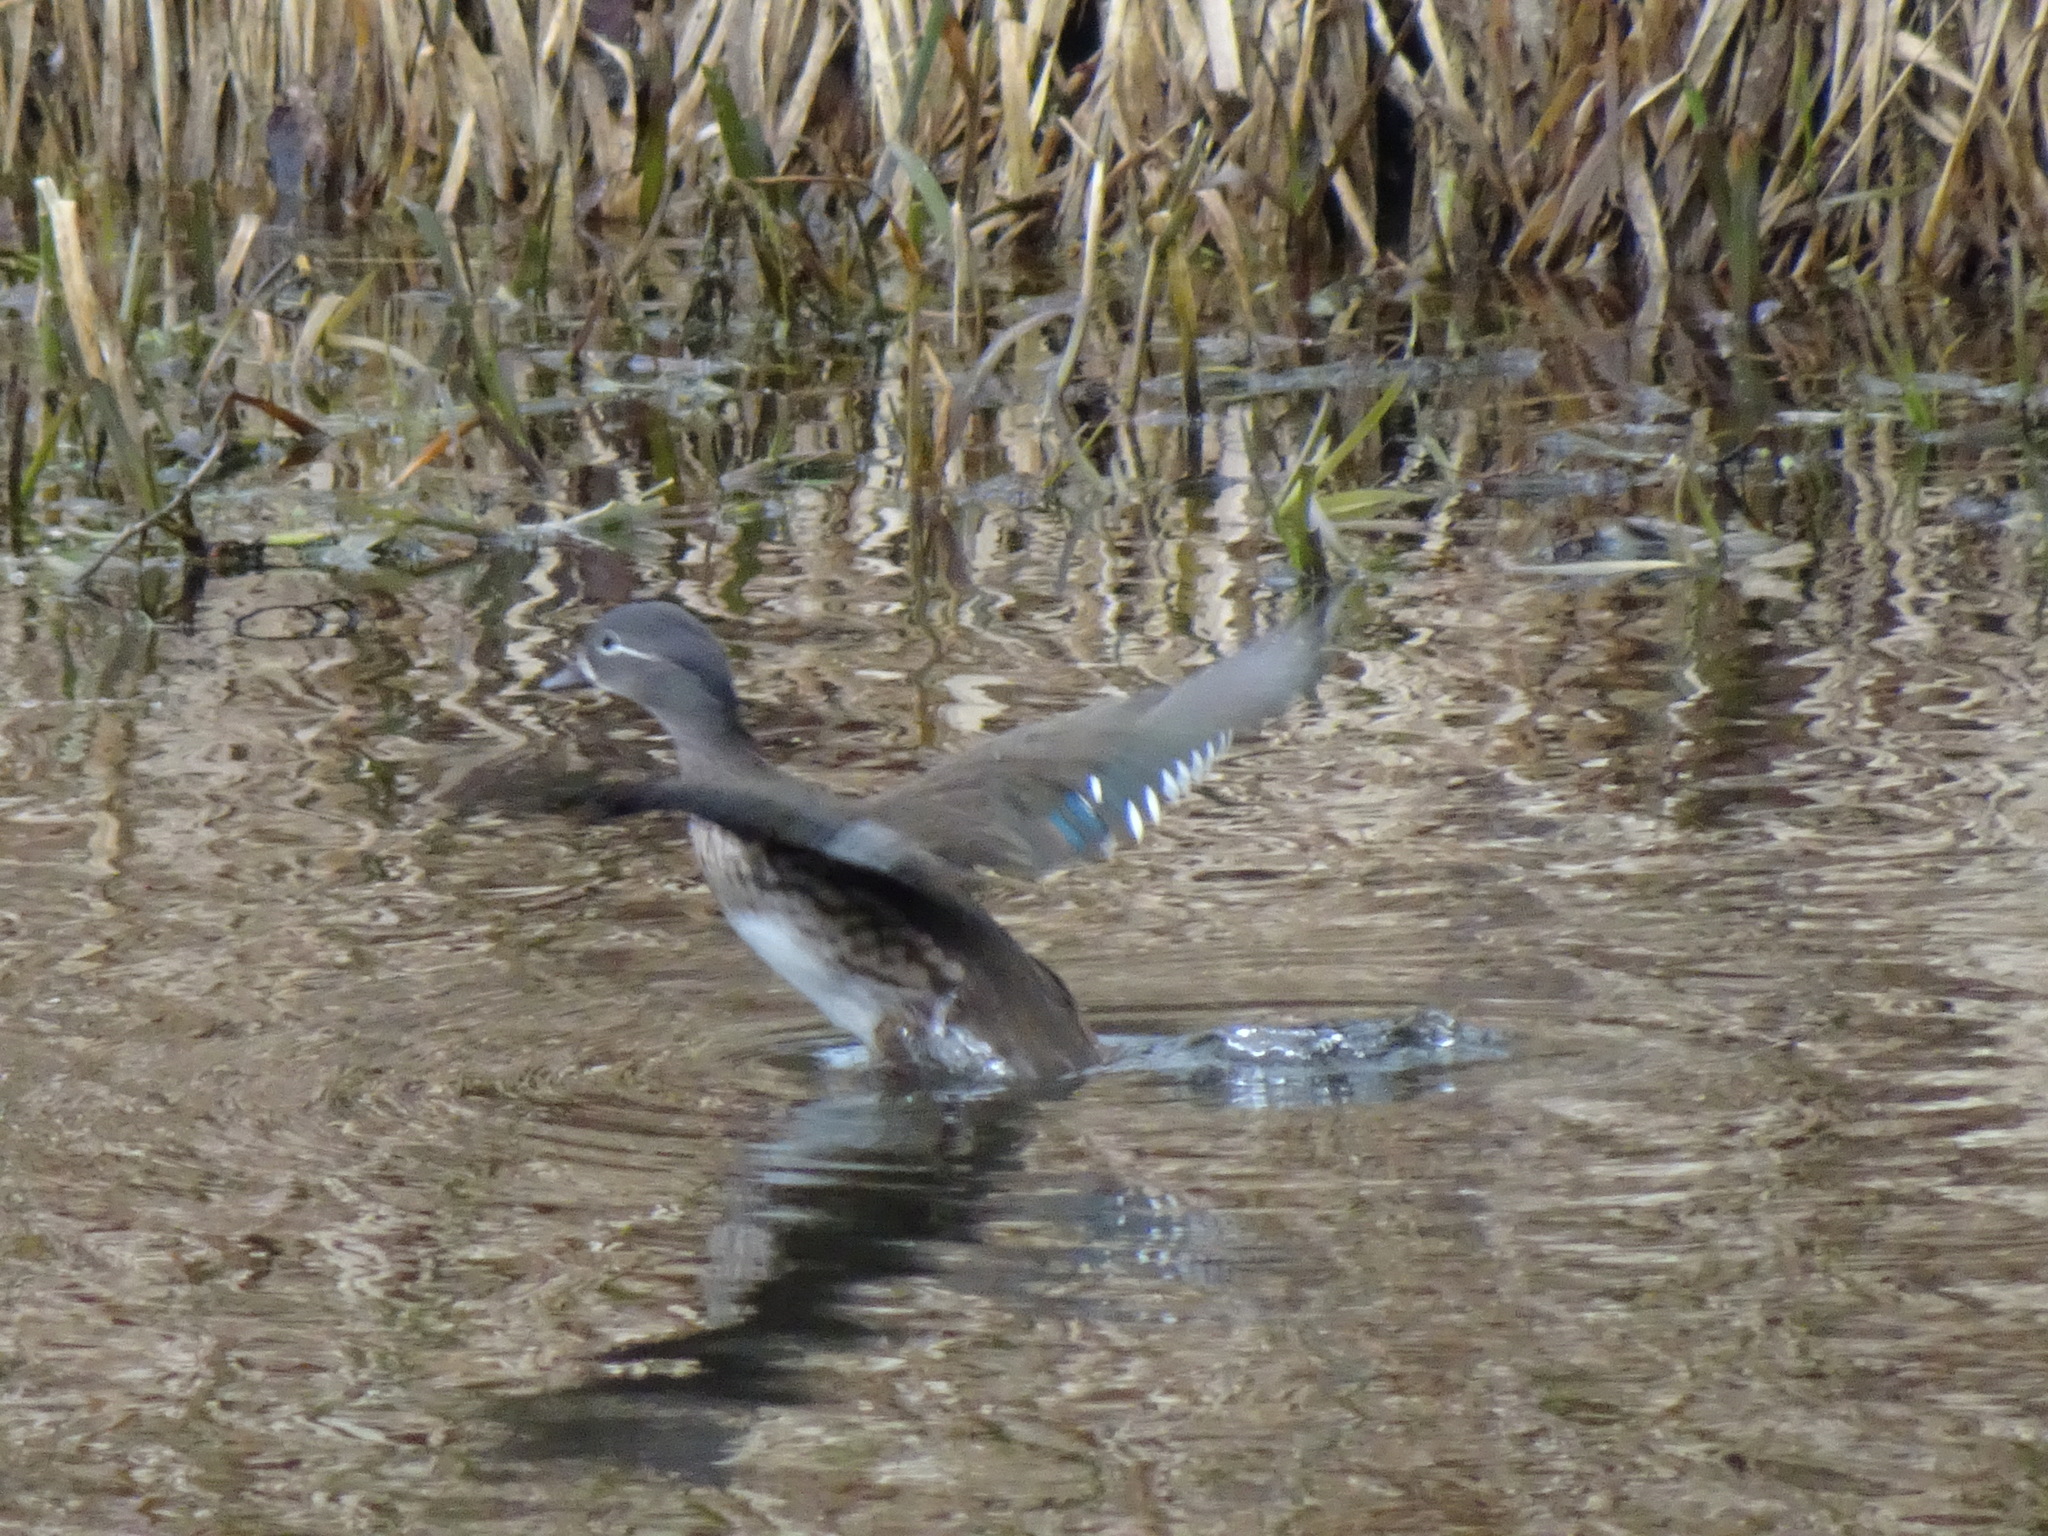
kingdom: Animalia
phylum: Chordata
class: Aves
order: Anseriformes
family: Anatidae
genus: Aix
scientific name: Aix galericulata
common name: Mandarin duck
